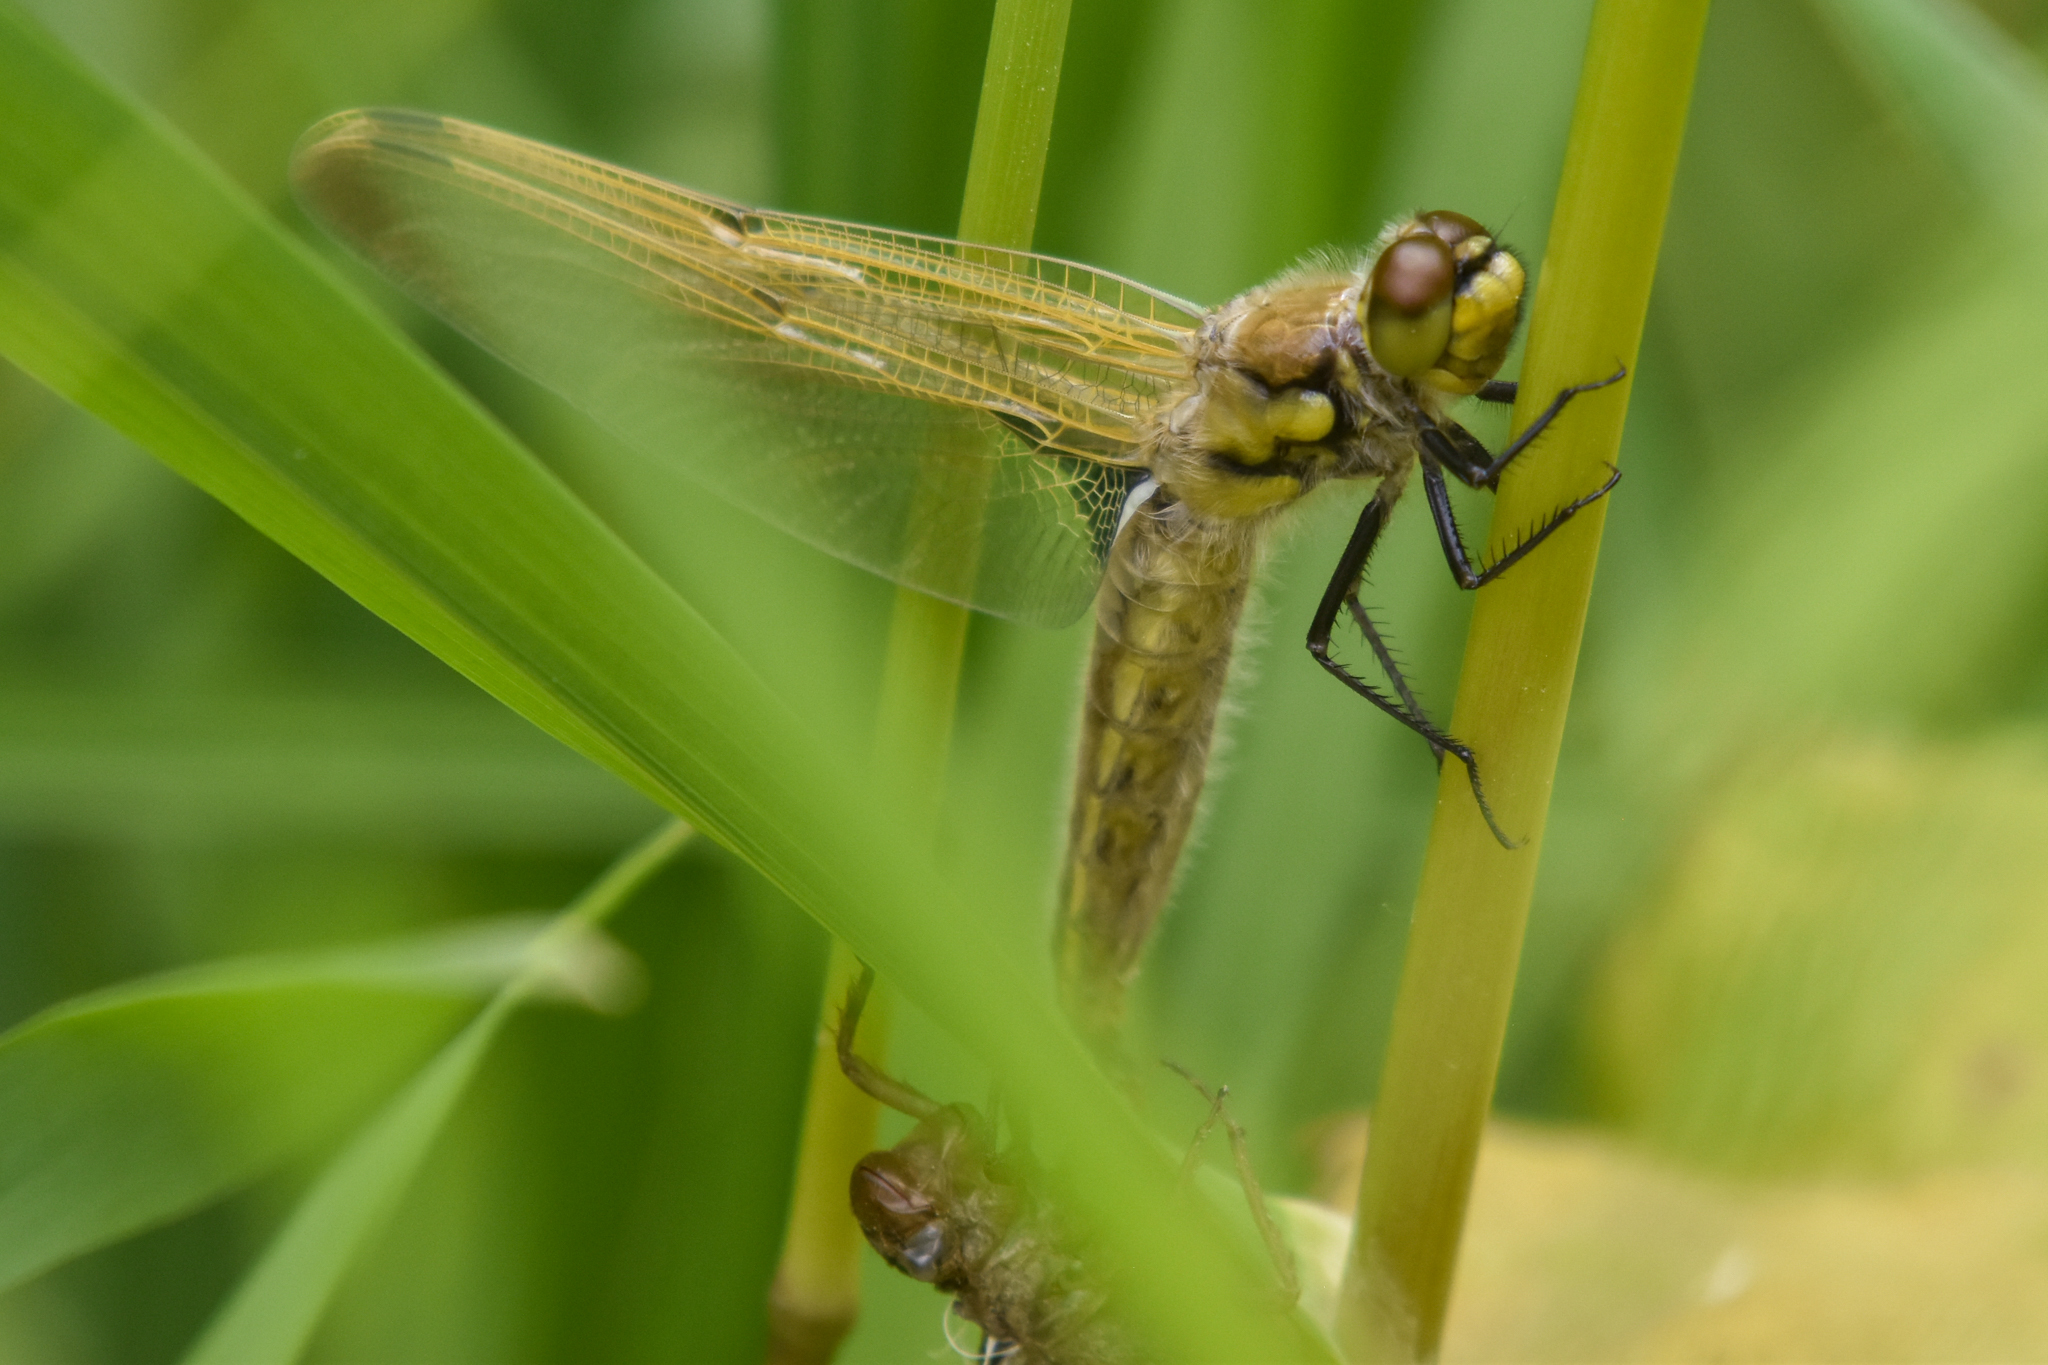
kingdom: Animalia
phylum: Arthropoda
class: Insecta
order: Odonata
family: Libellulidae
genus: Libellula
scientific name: Libellula quadrimaculata
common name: Four-spotted chaser
